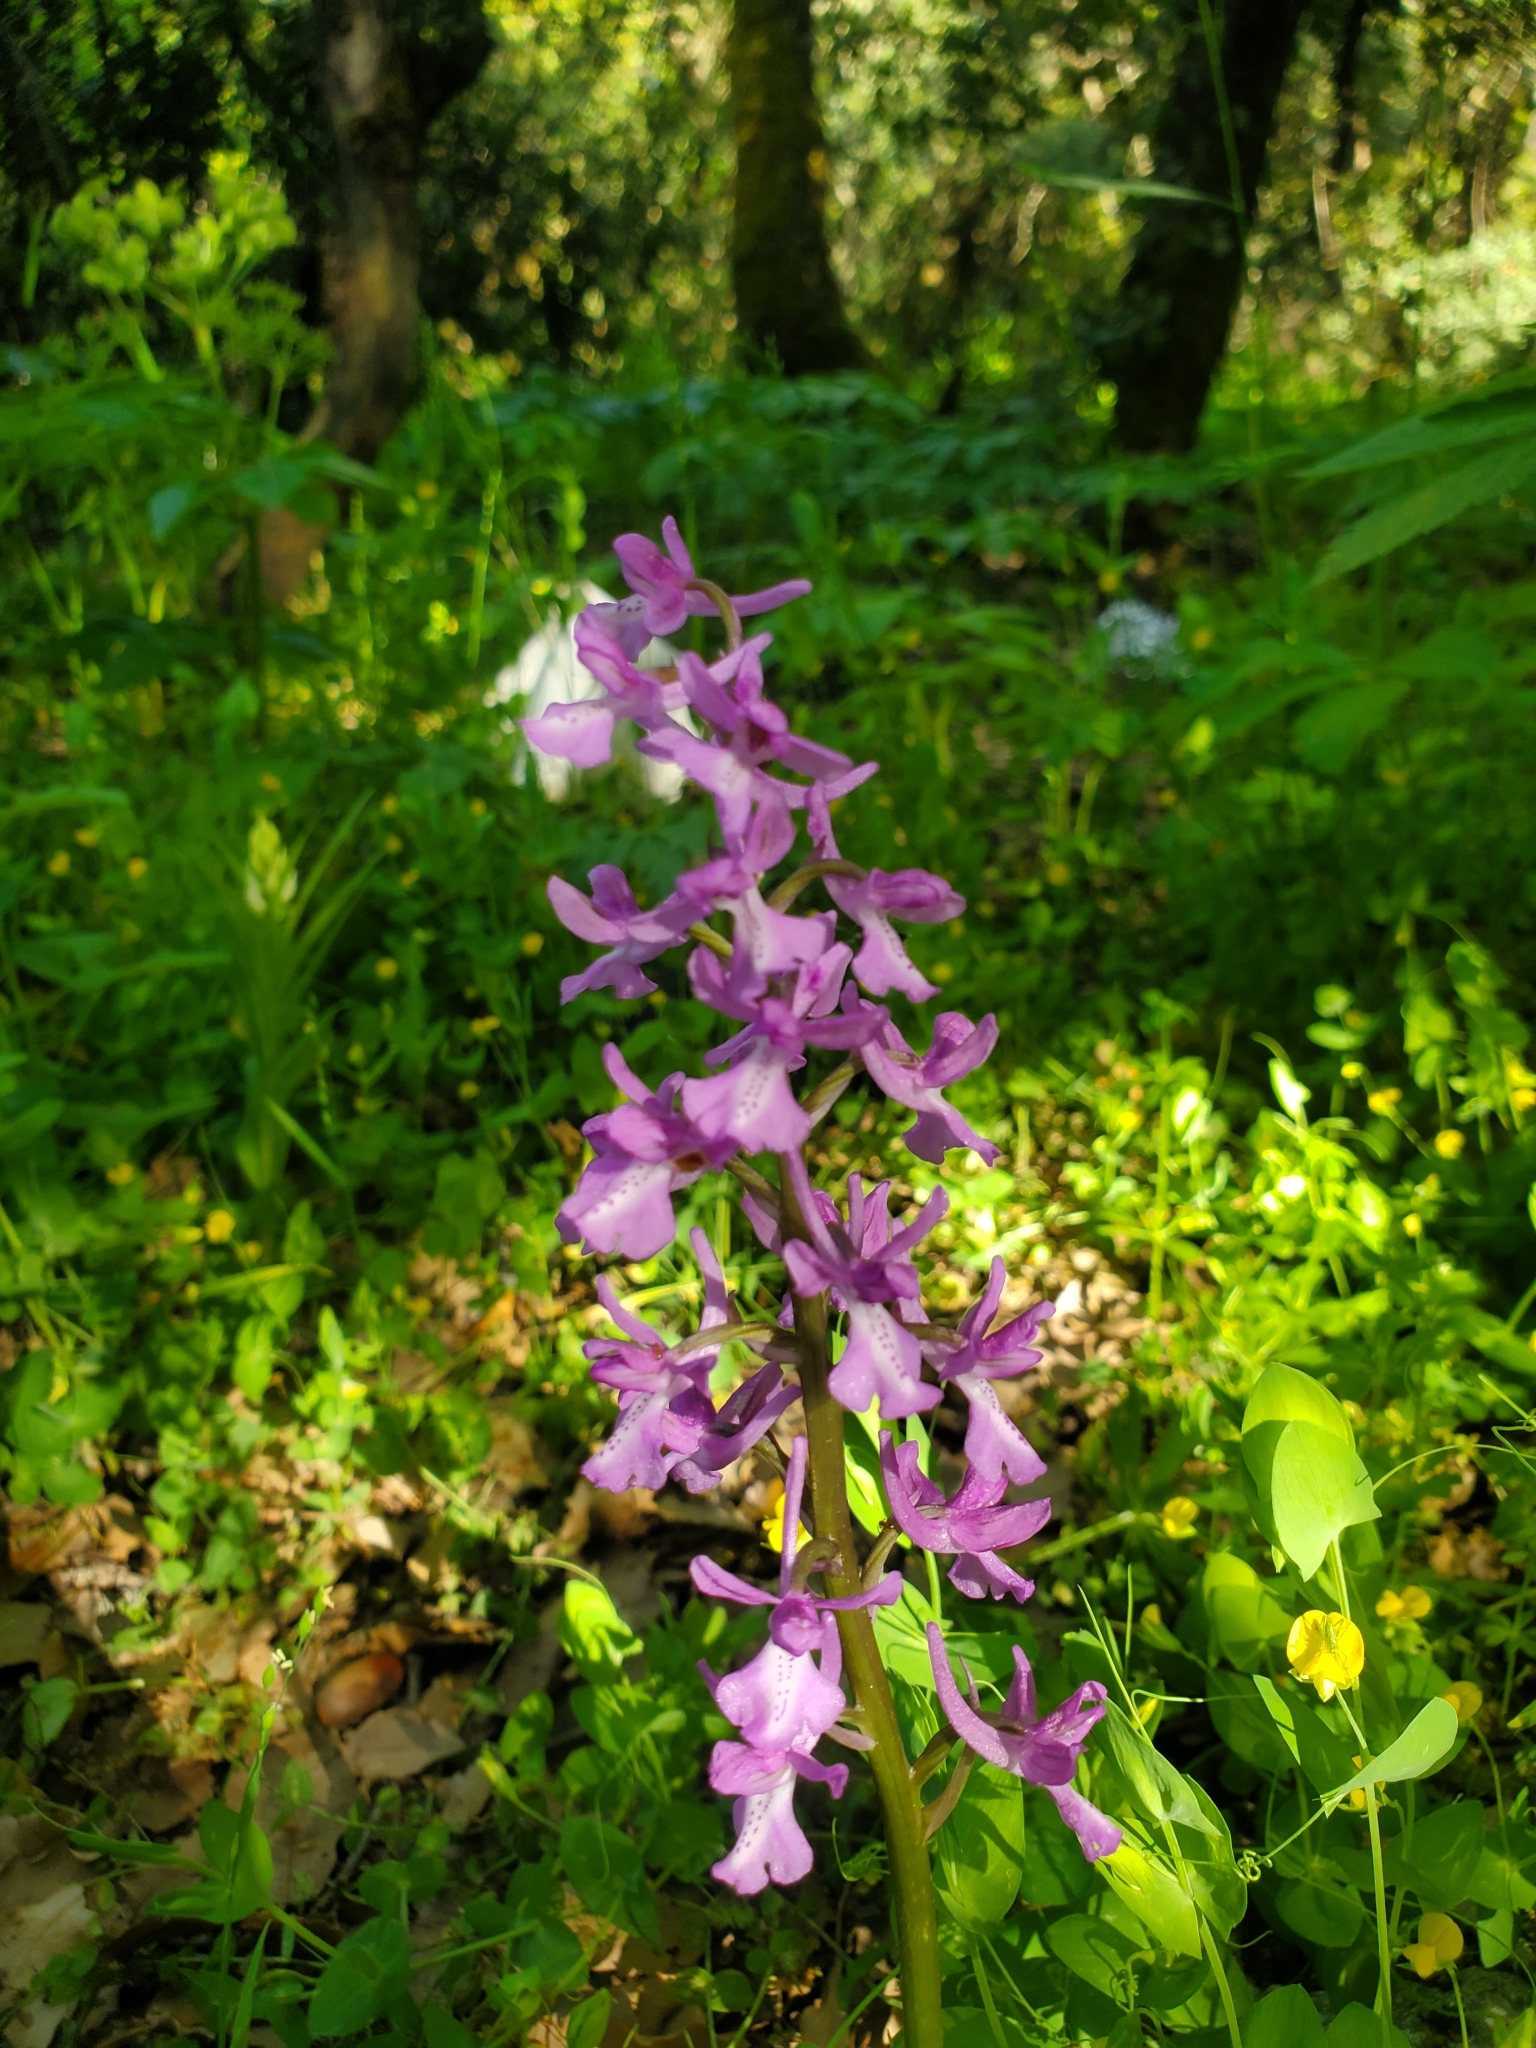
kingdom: Plantae
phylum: Tracheophyta
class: Liliopsida
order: Asparagales
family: Orchidaceae
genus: Orchis
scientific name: Orchis anatolica
